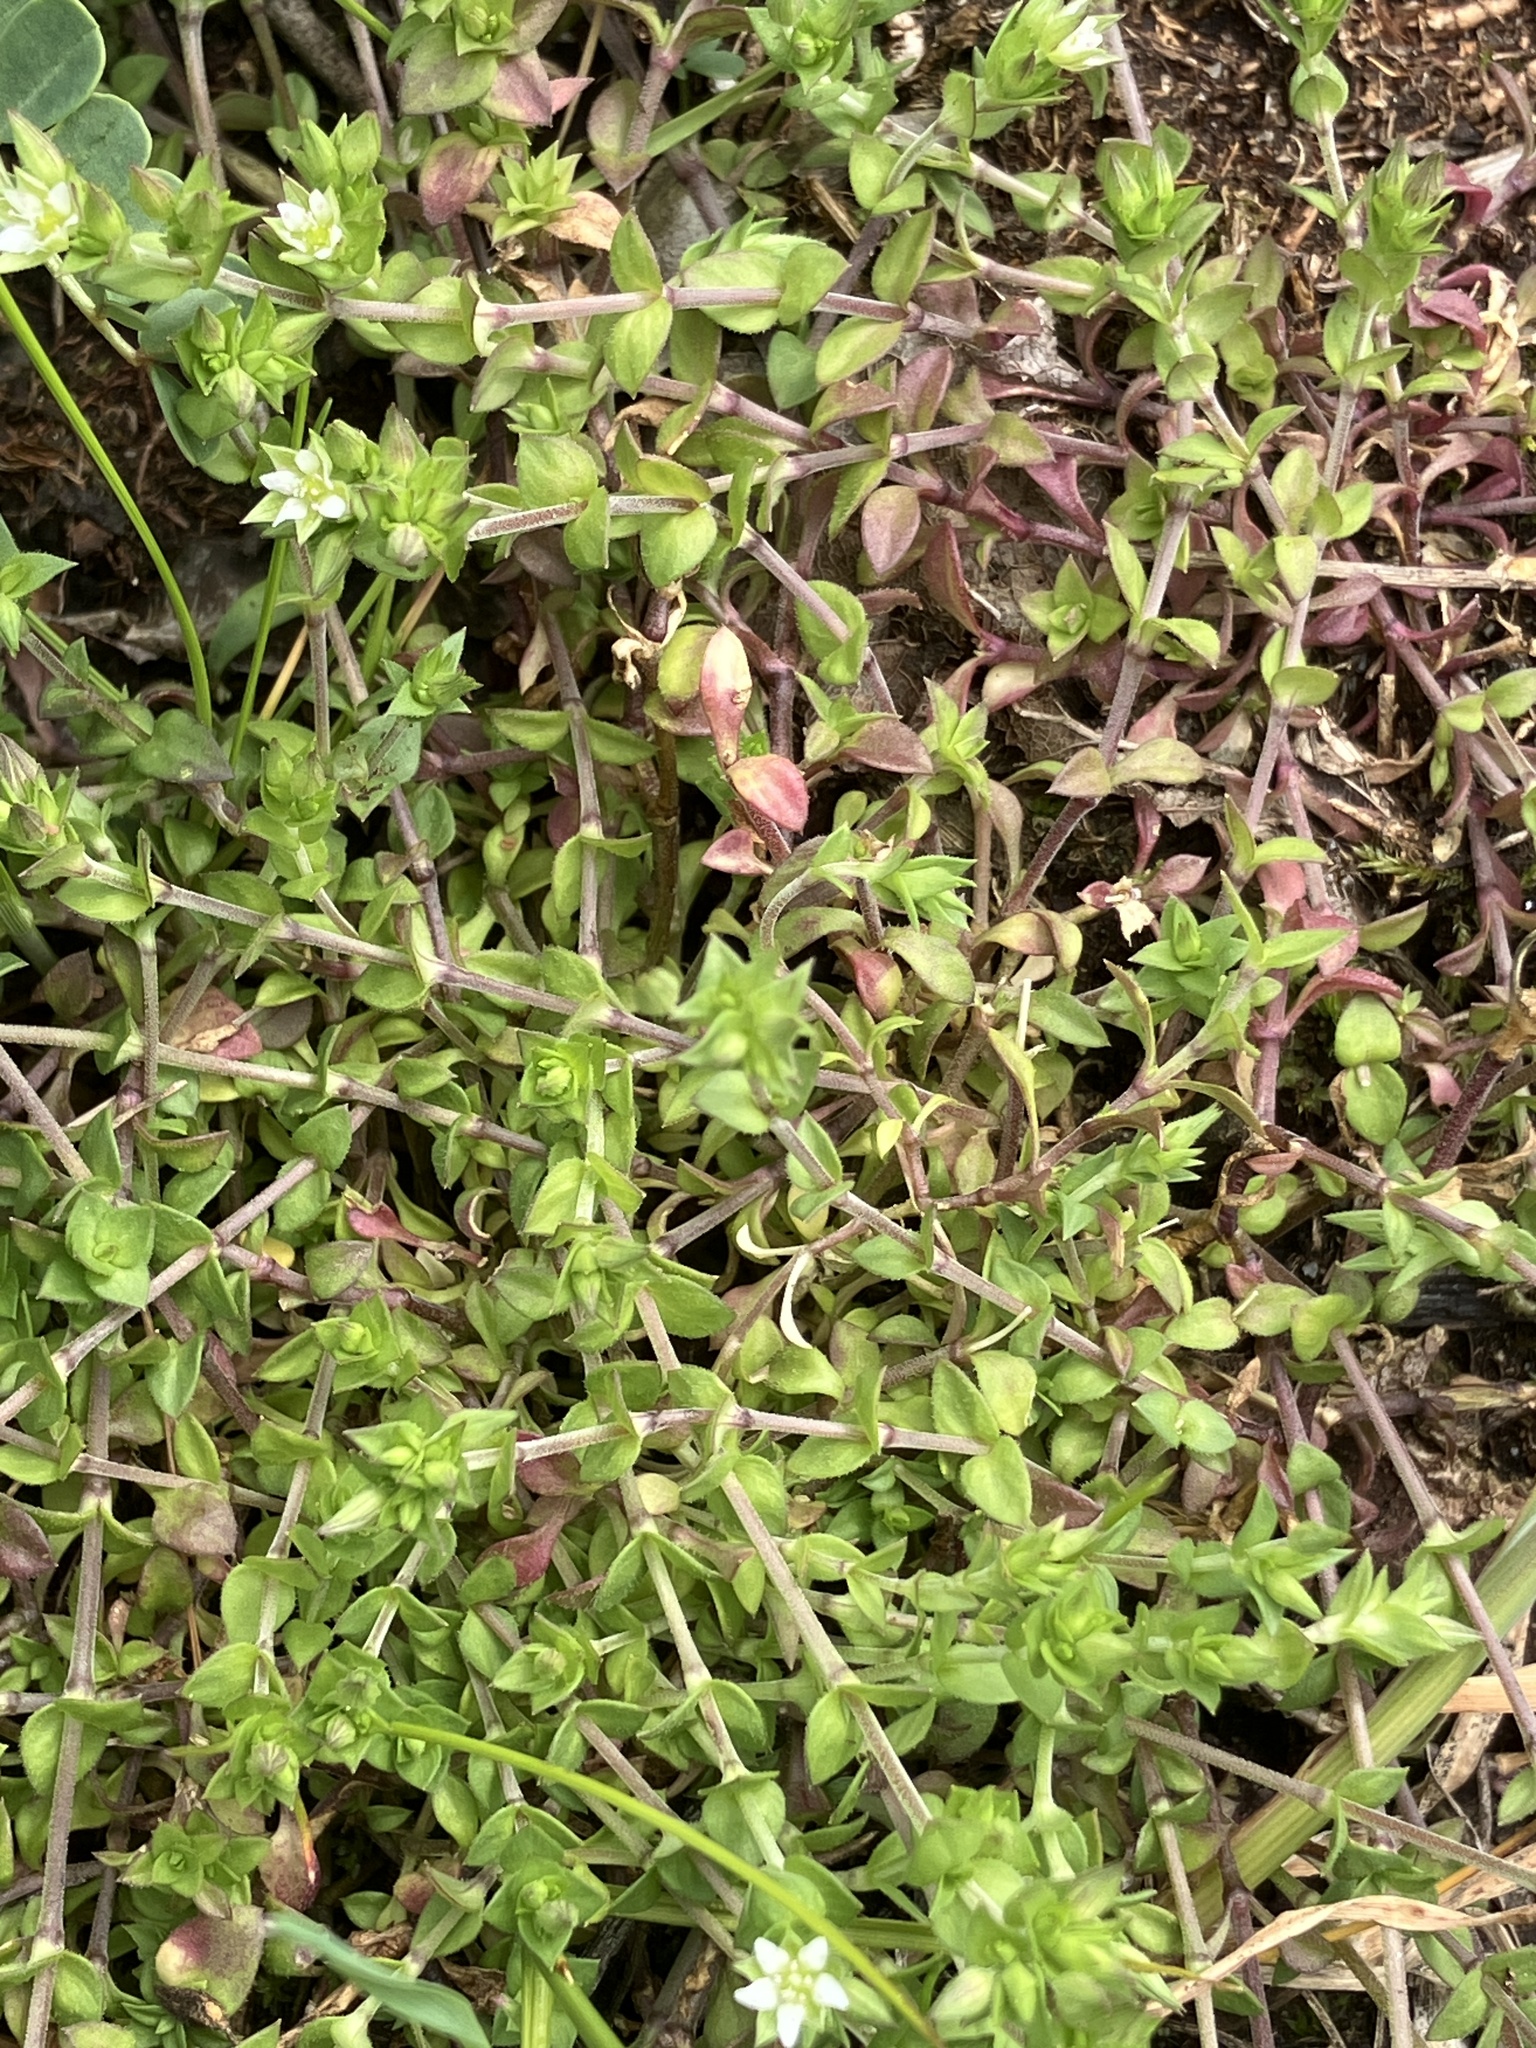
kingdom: Plantae
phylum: Tracheophyta
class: Magnoliopsida
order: Caryophyllales
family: Caryophyllaceae
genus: Arenaria
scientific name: Arenaria serpyllifolia
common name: Thyme-leaved sandwort
